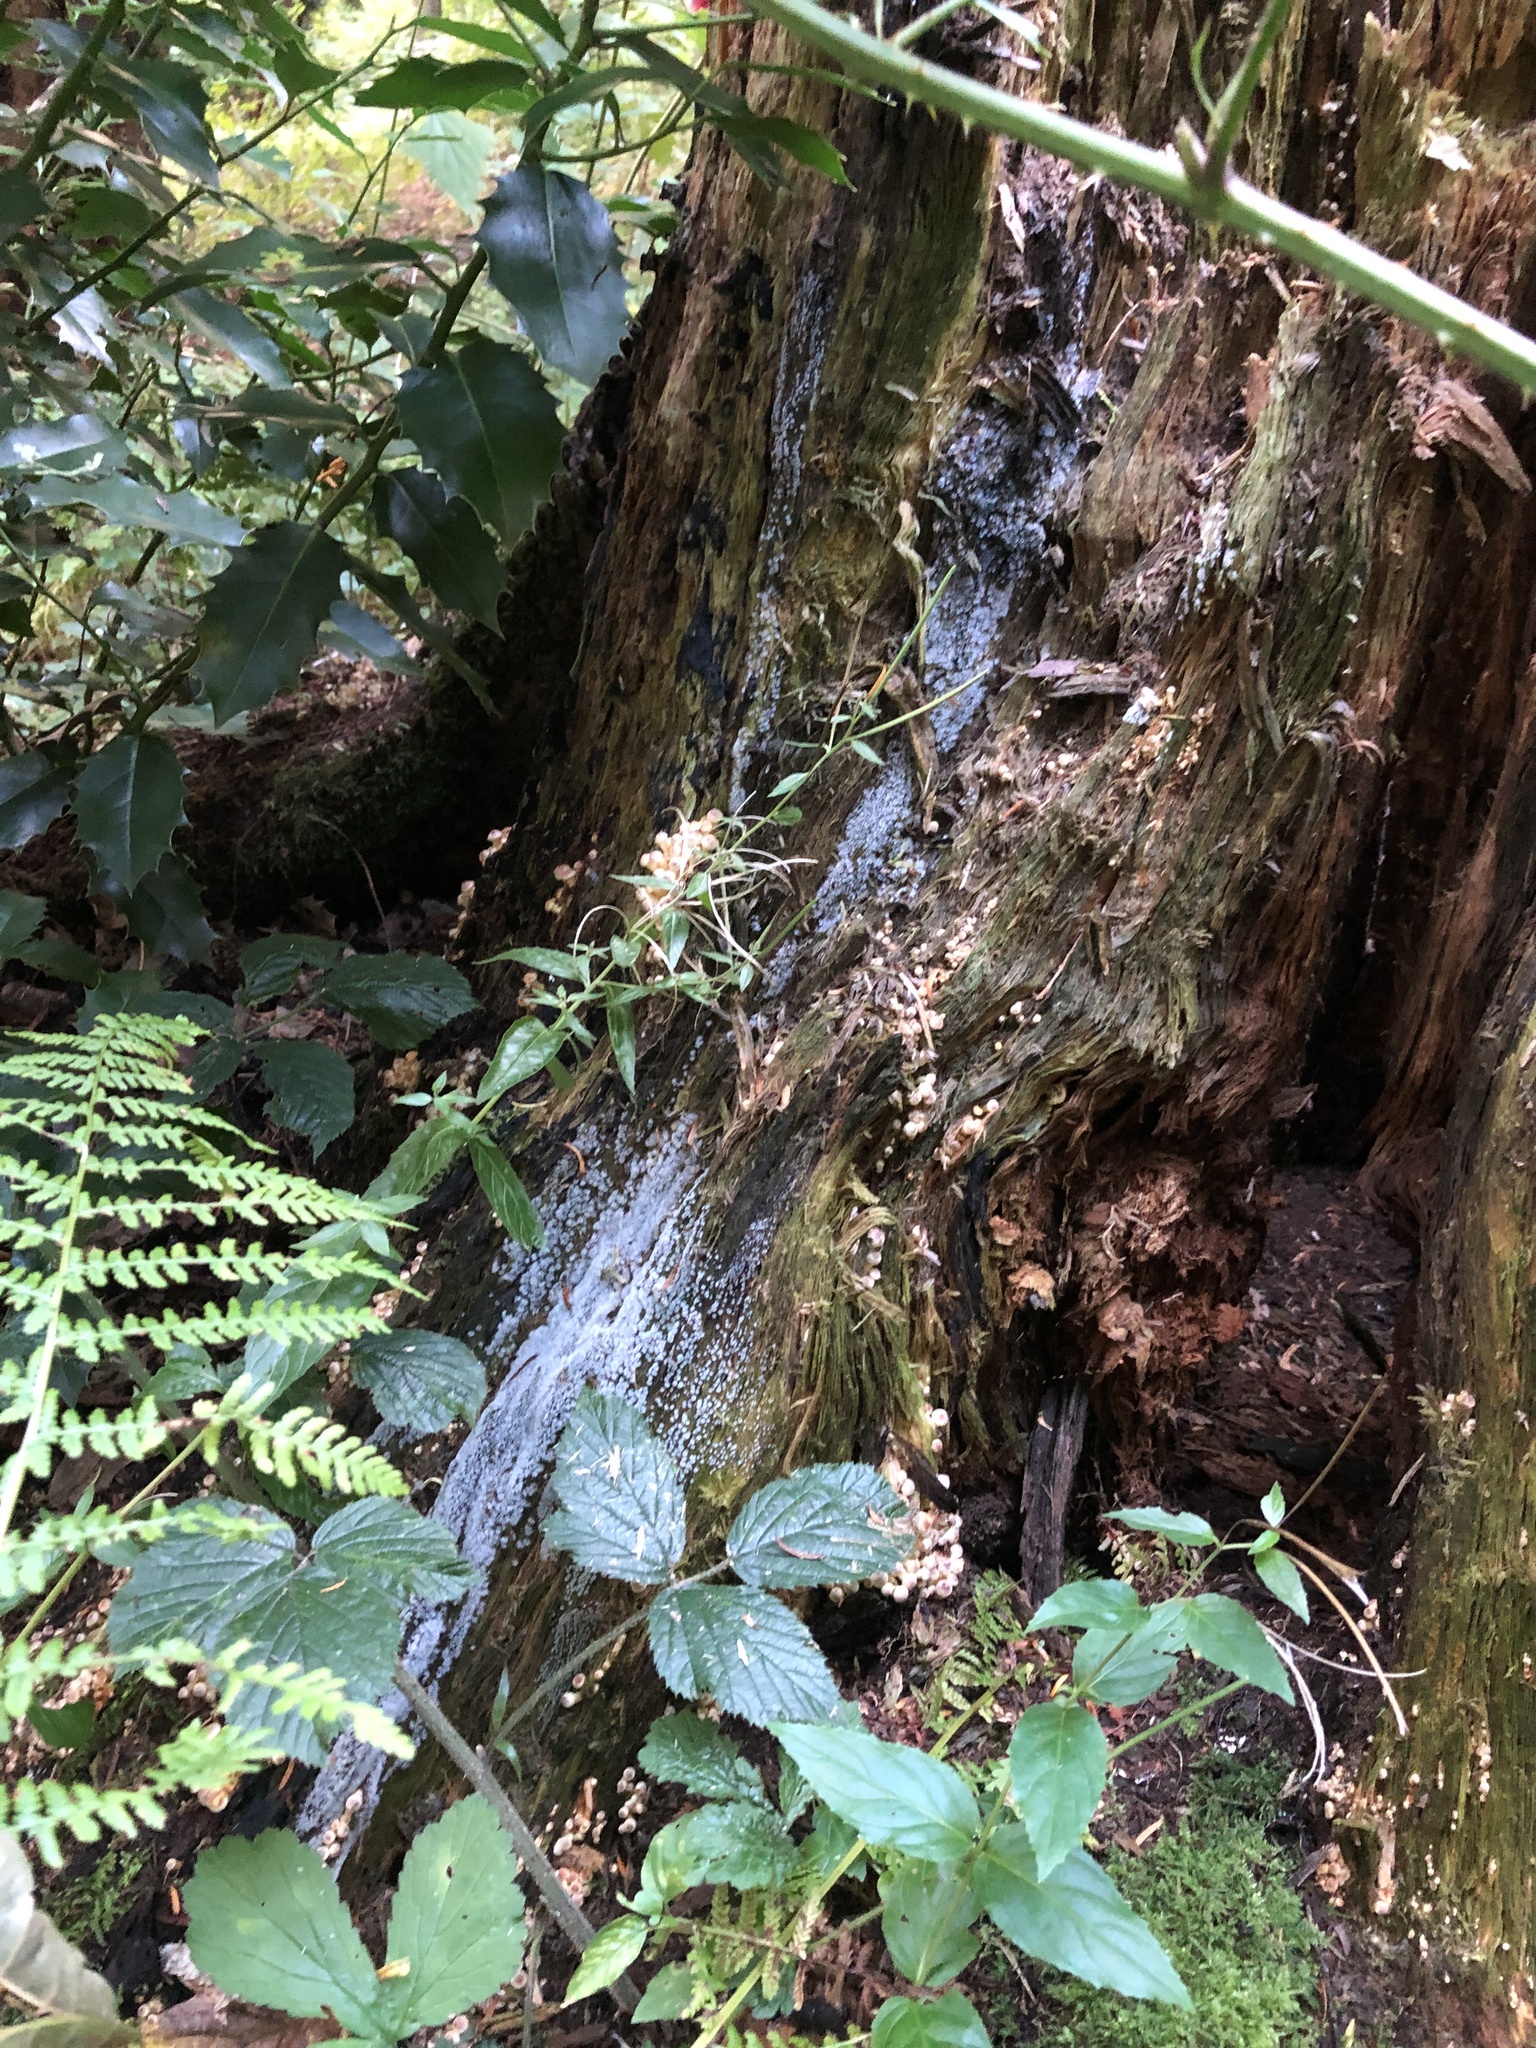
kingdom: Protozoa
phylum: Mycetozoa
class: Protosteliomycetes
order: Ceratiomyxales
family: Ceratiomyxaceae
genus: Ceratiomyxa
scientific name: Ceratiomyxa fruticulosa
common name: Honeycomb coral slime mold
